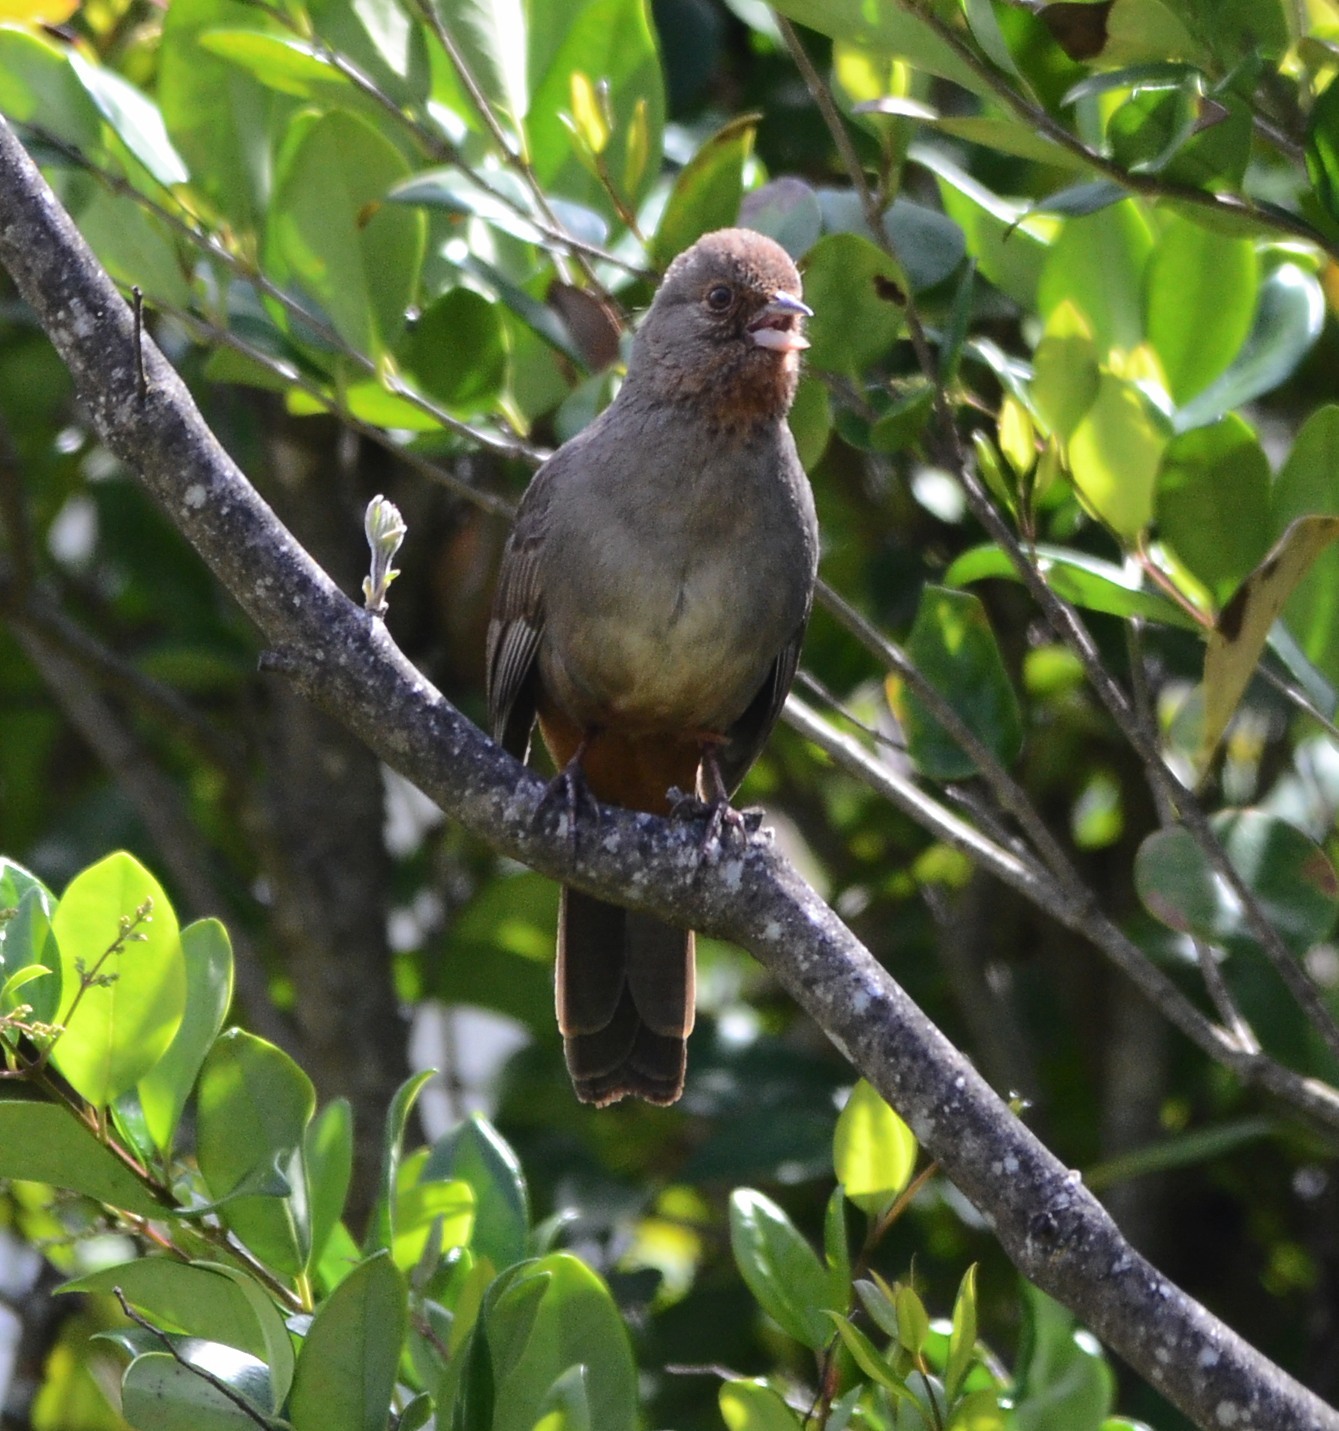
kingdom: Animalia
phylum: Chordata
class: Aves
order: Passeriformes
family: Passerellidae
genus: Melozone
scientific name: Melozone crissalis
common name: California towhee
